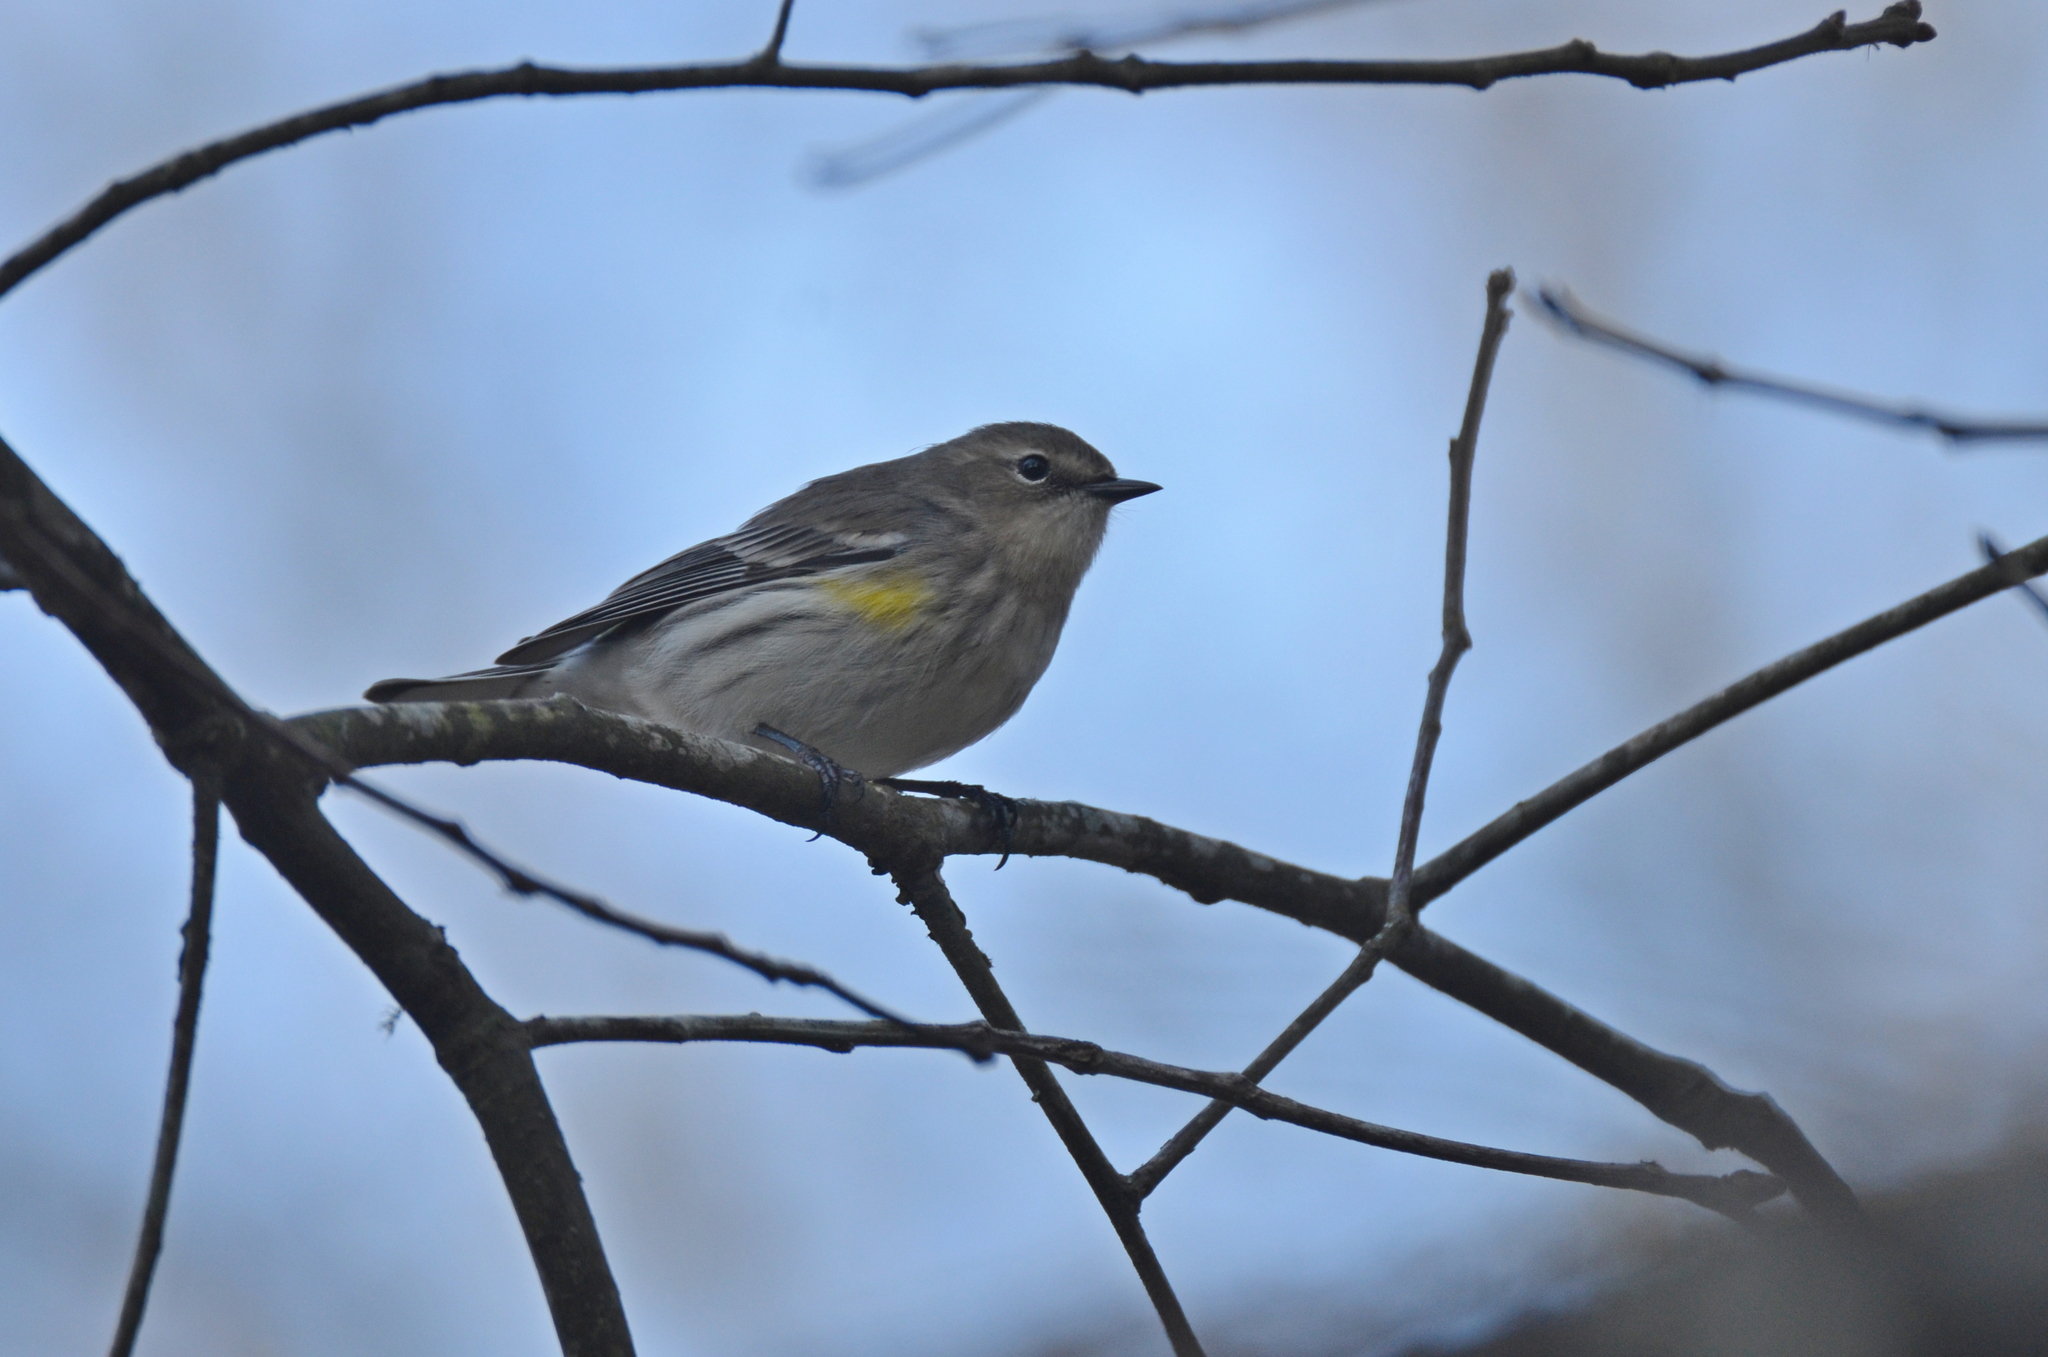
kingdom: Animalia
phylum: Chordata
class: Aves
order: Passeriformes
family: Parulidae
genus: Setophaga
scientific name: Setophaga coronata
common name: Myrtle warbler
